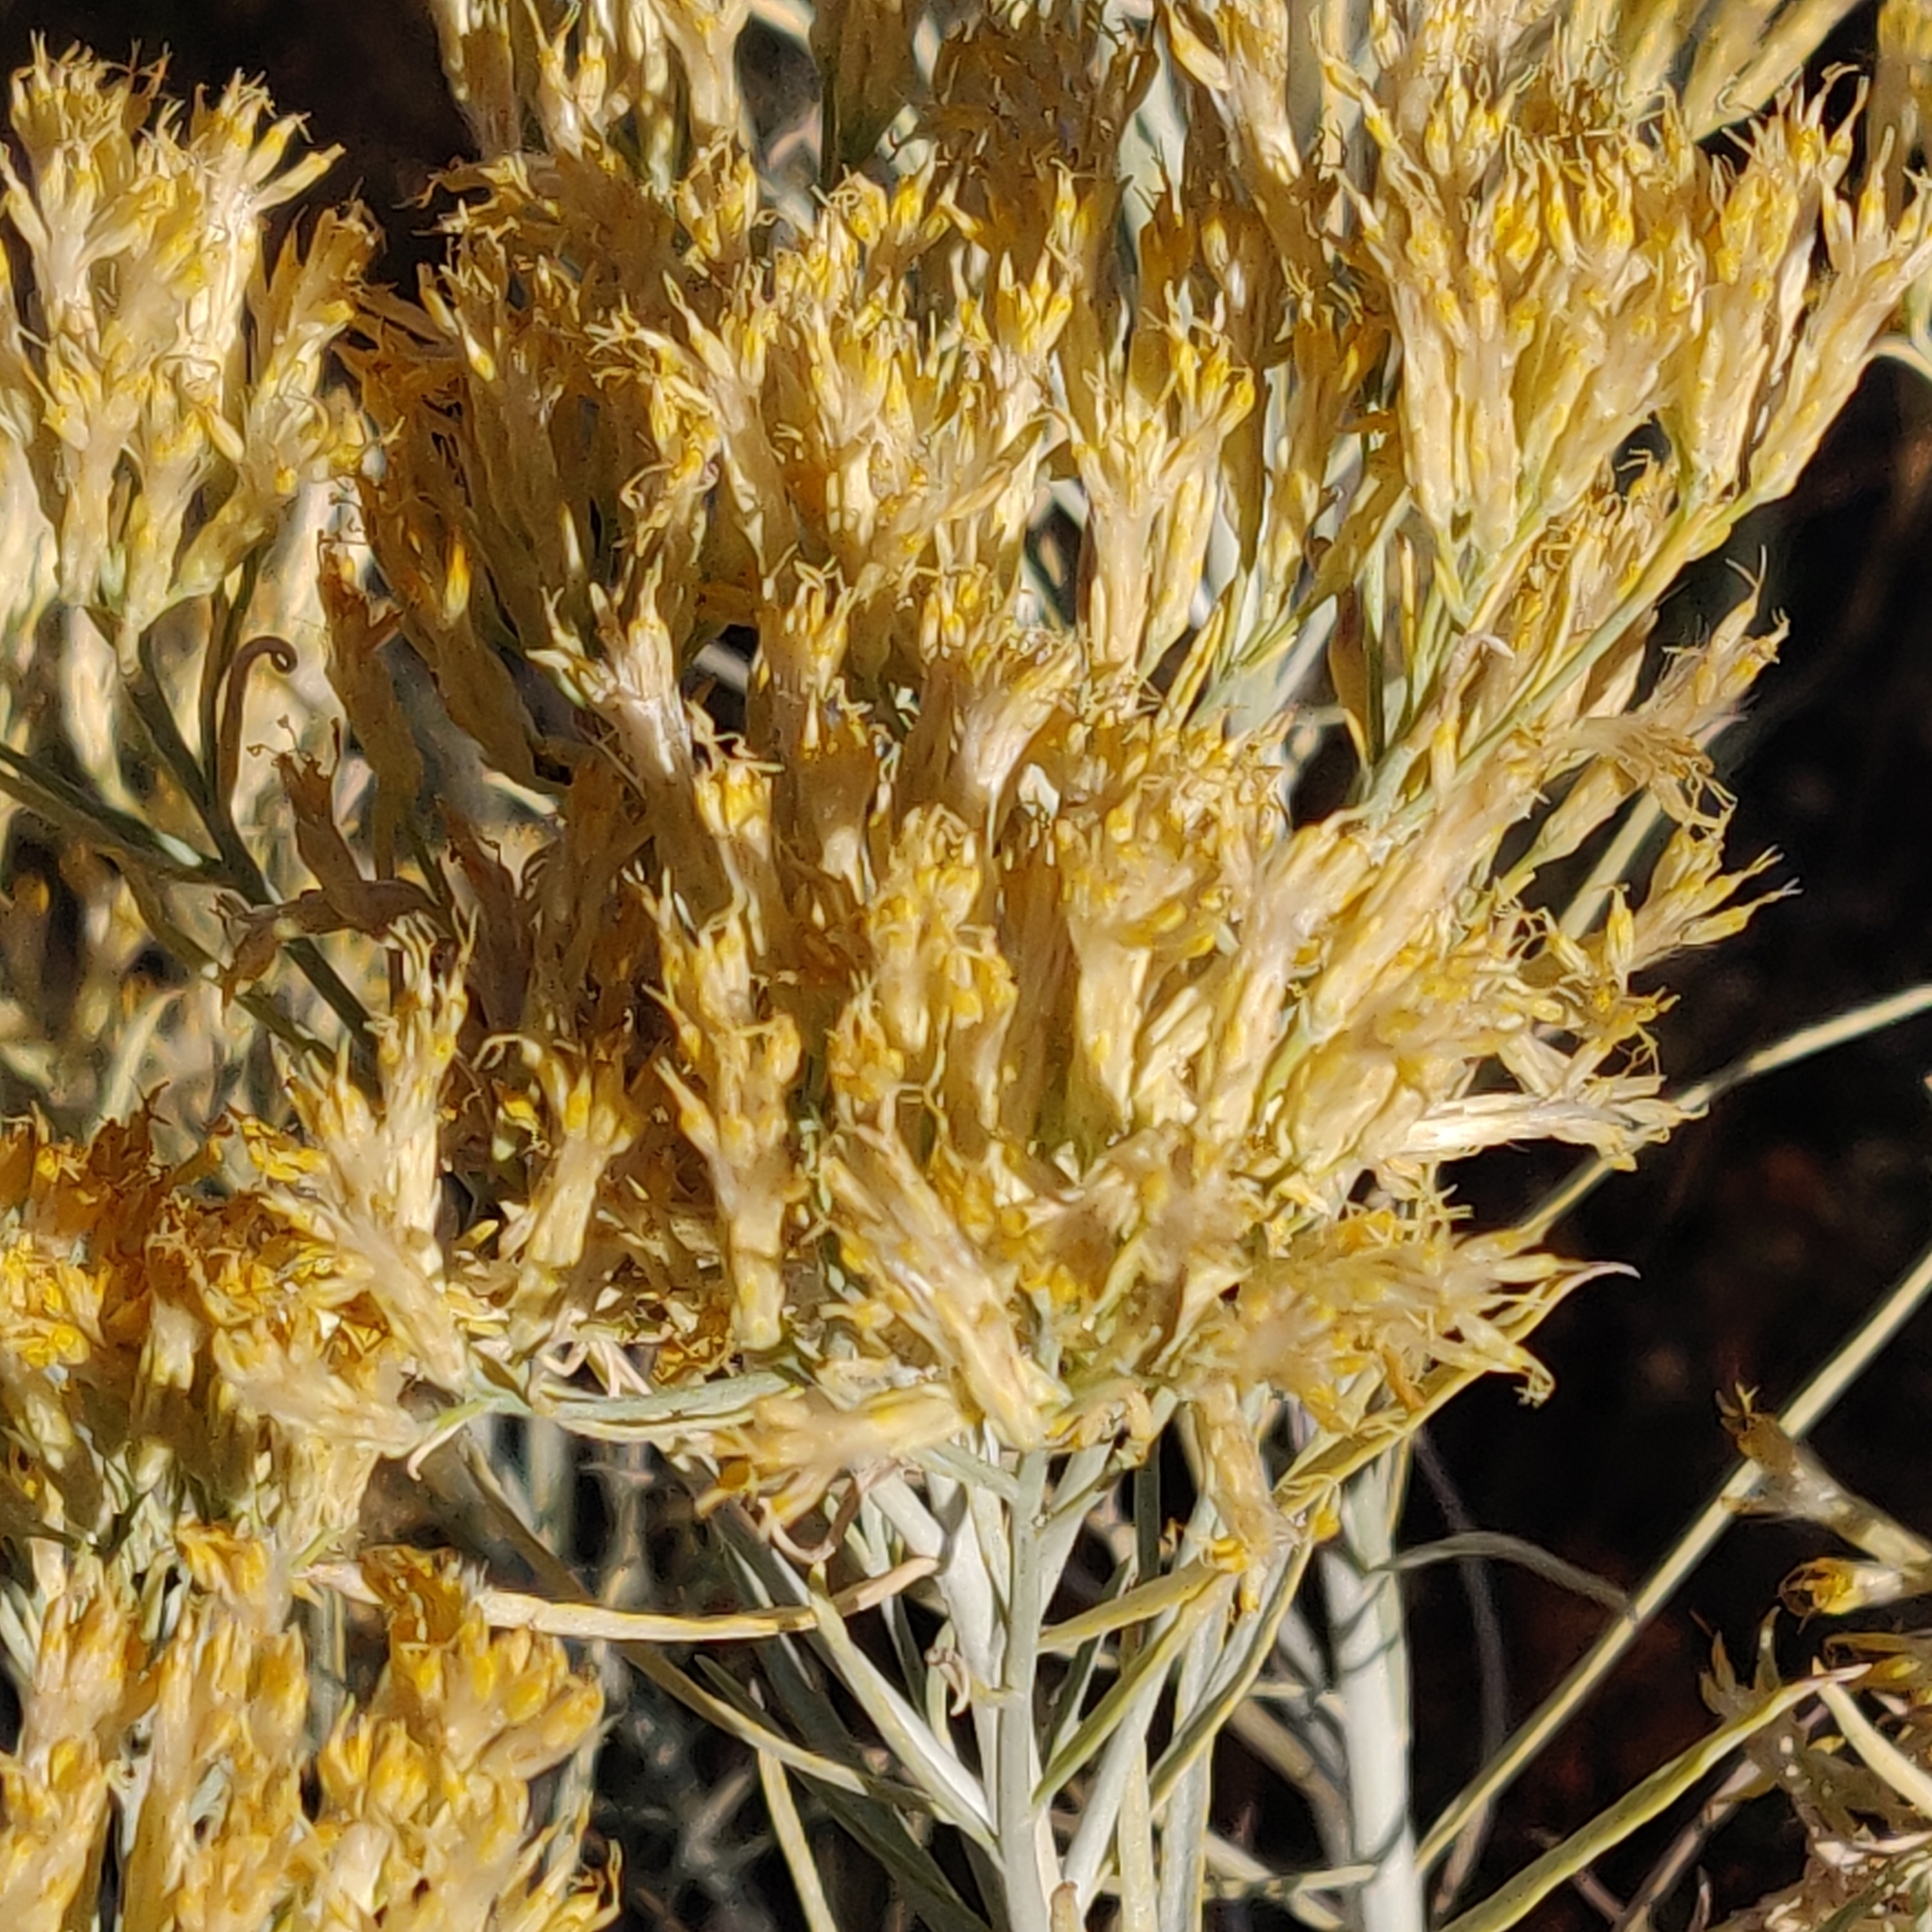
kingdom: Plantae
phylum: Tracheophyta
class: Magnoliopsida
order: Asterales
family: Asteraceae
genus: Ericameria
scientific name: Ericameria nauseosa
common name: Rubber rabbitbrush
